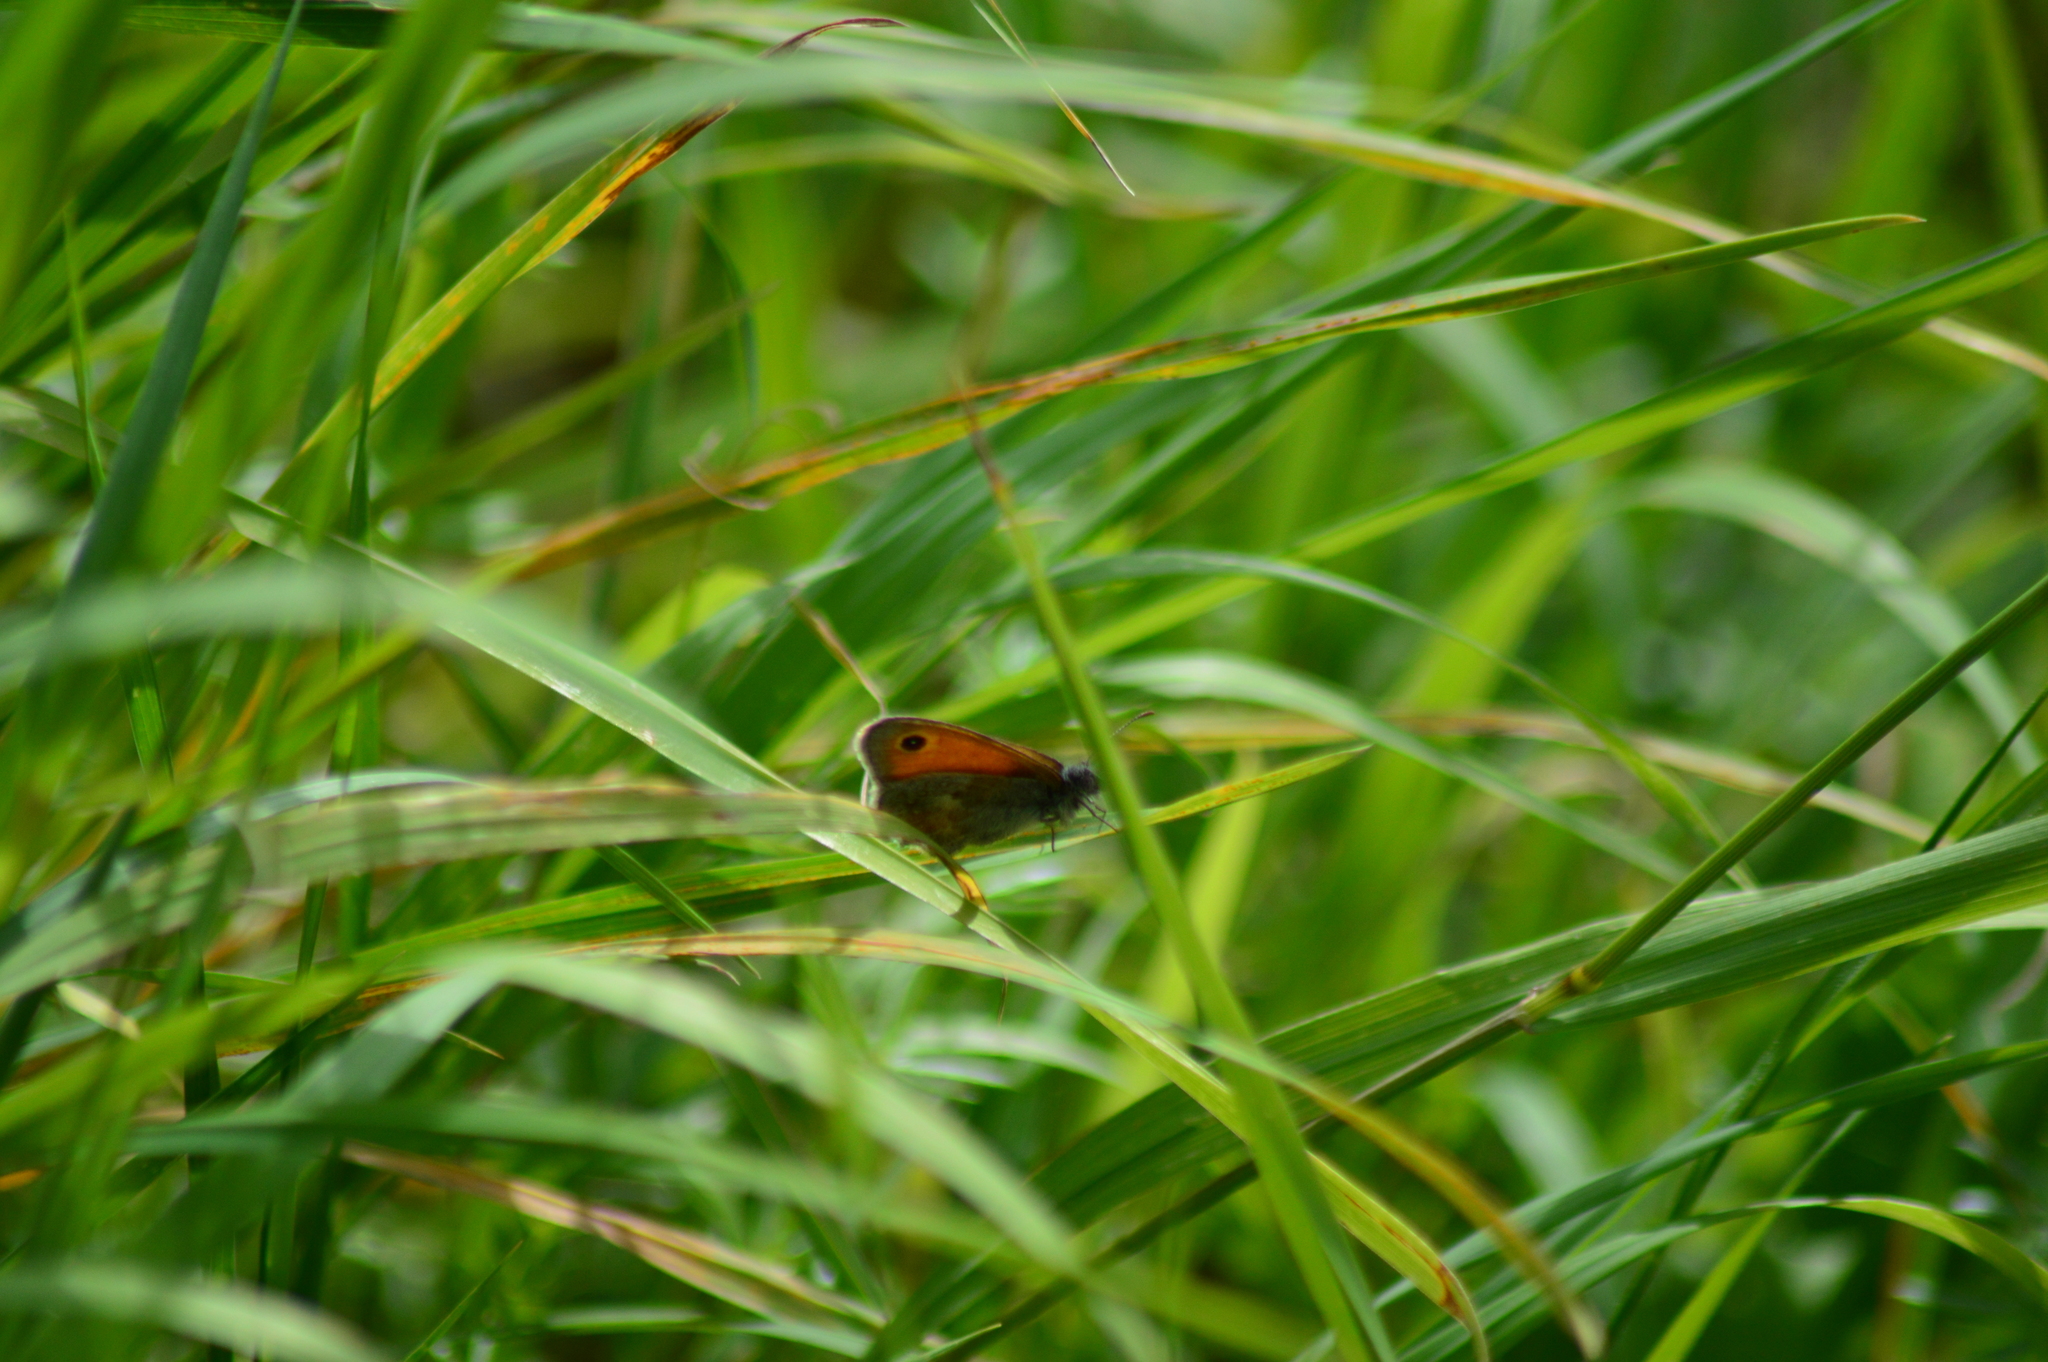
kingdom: Animalia
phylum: Arthropoda
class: Insecta
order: Lepidoptera
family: Nymphalidae
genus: Coenonympha
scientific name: Coenonympha pamphilus
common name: Small heath
